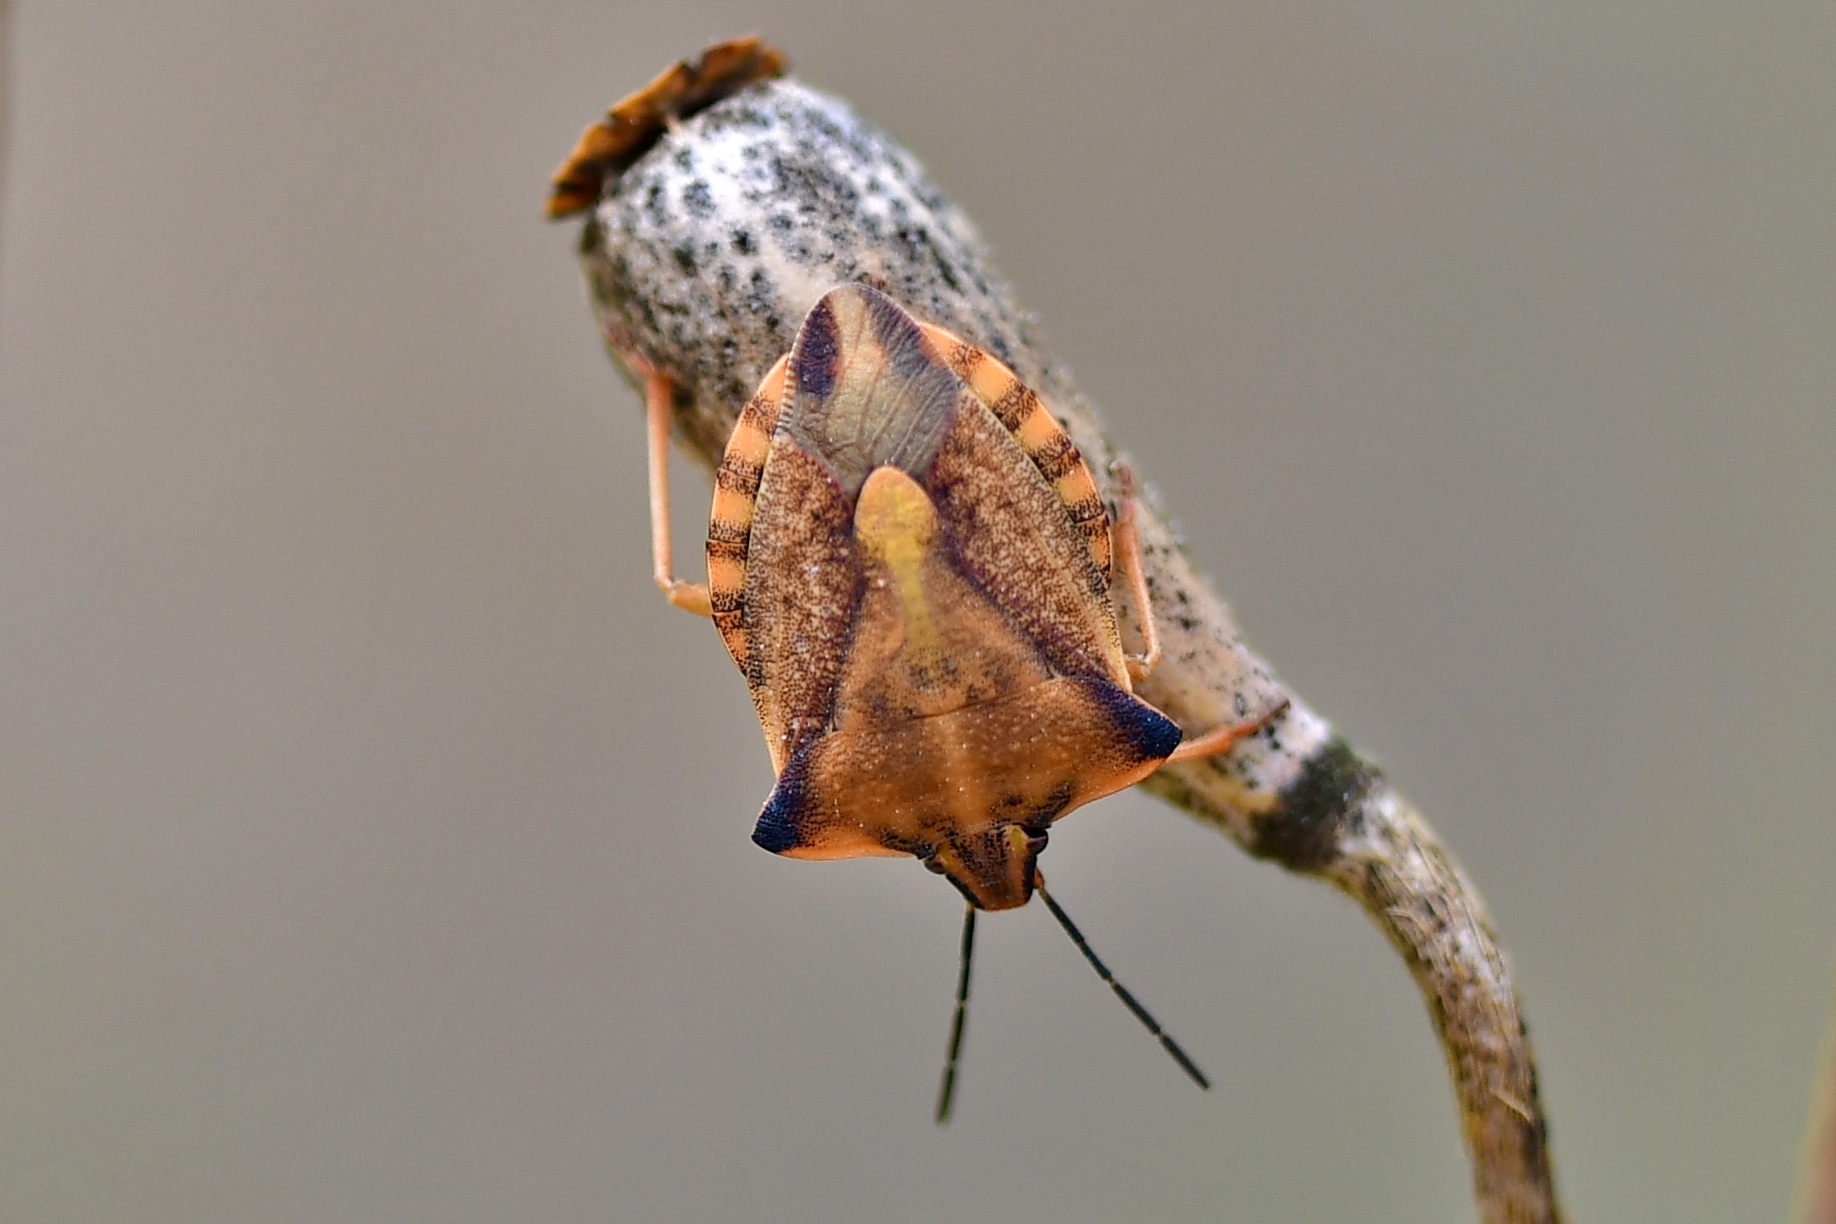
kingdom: Animalia
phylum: Arthropoda
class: Insecta
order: Hemiptera
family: Pentatomidae
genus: Carpocoris
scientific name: Carpocoris fuscispinus
